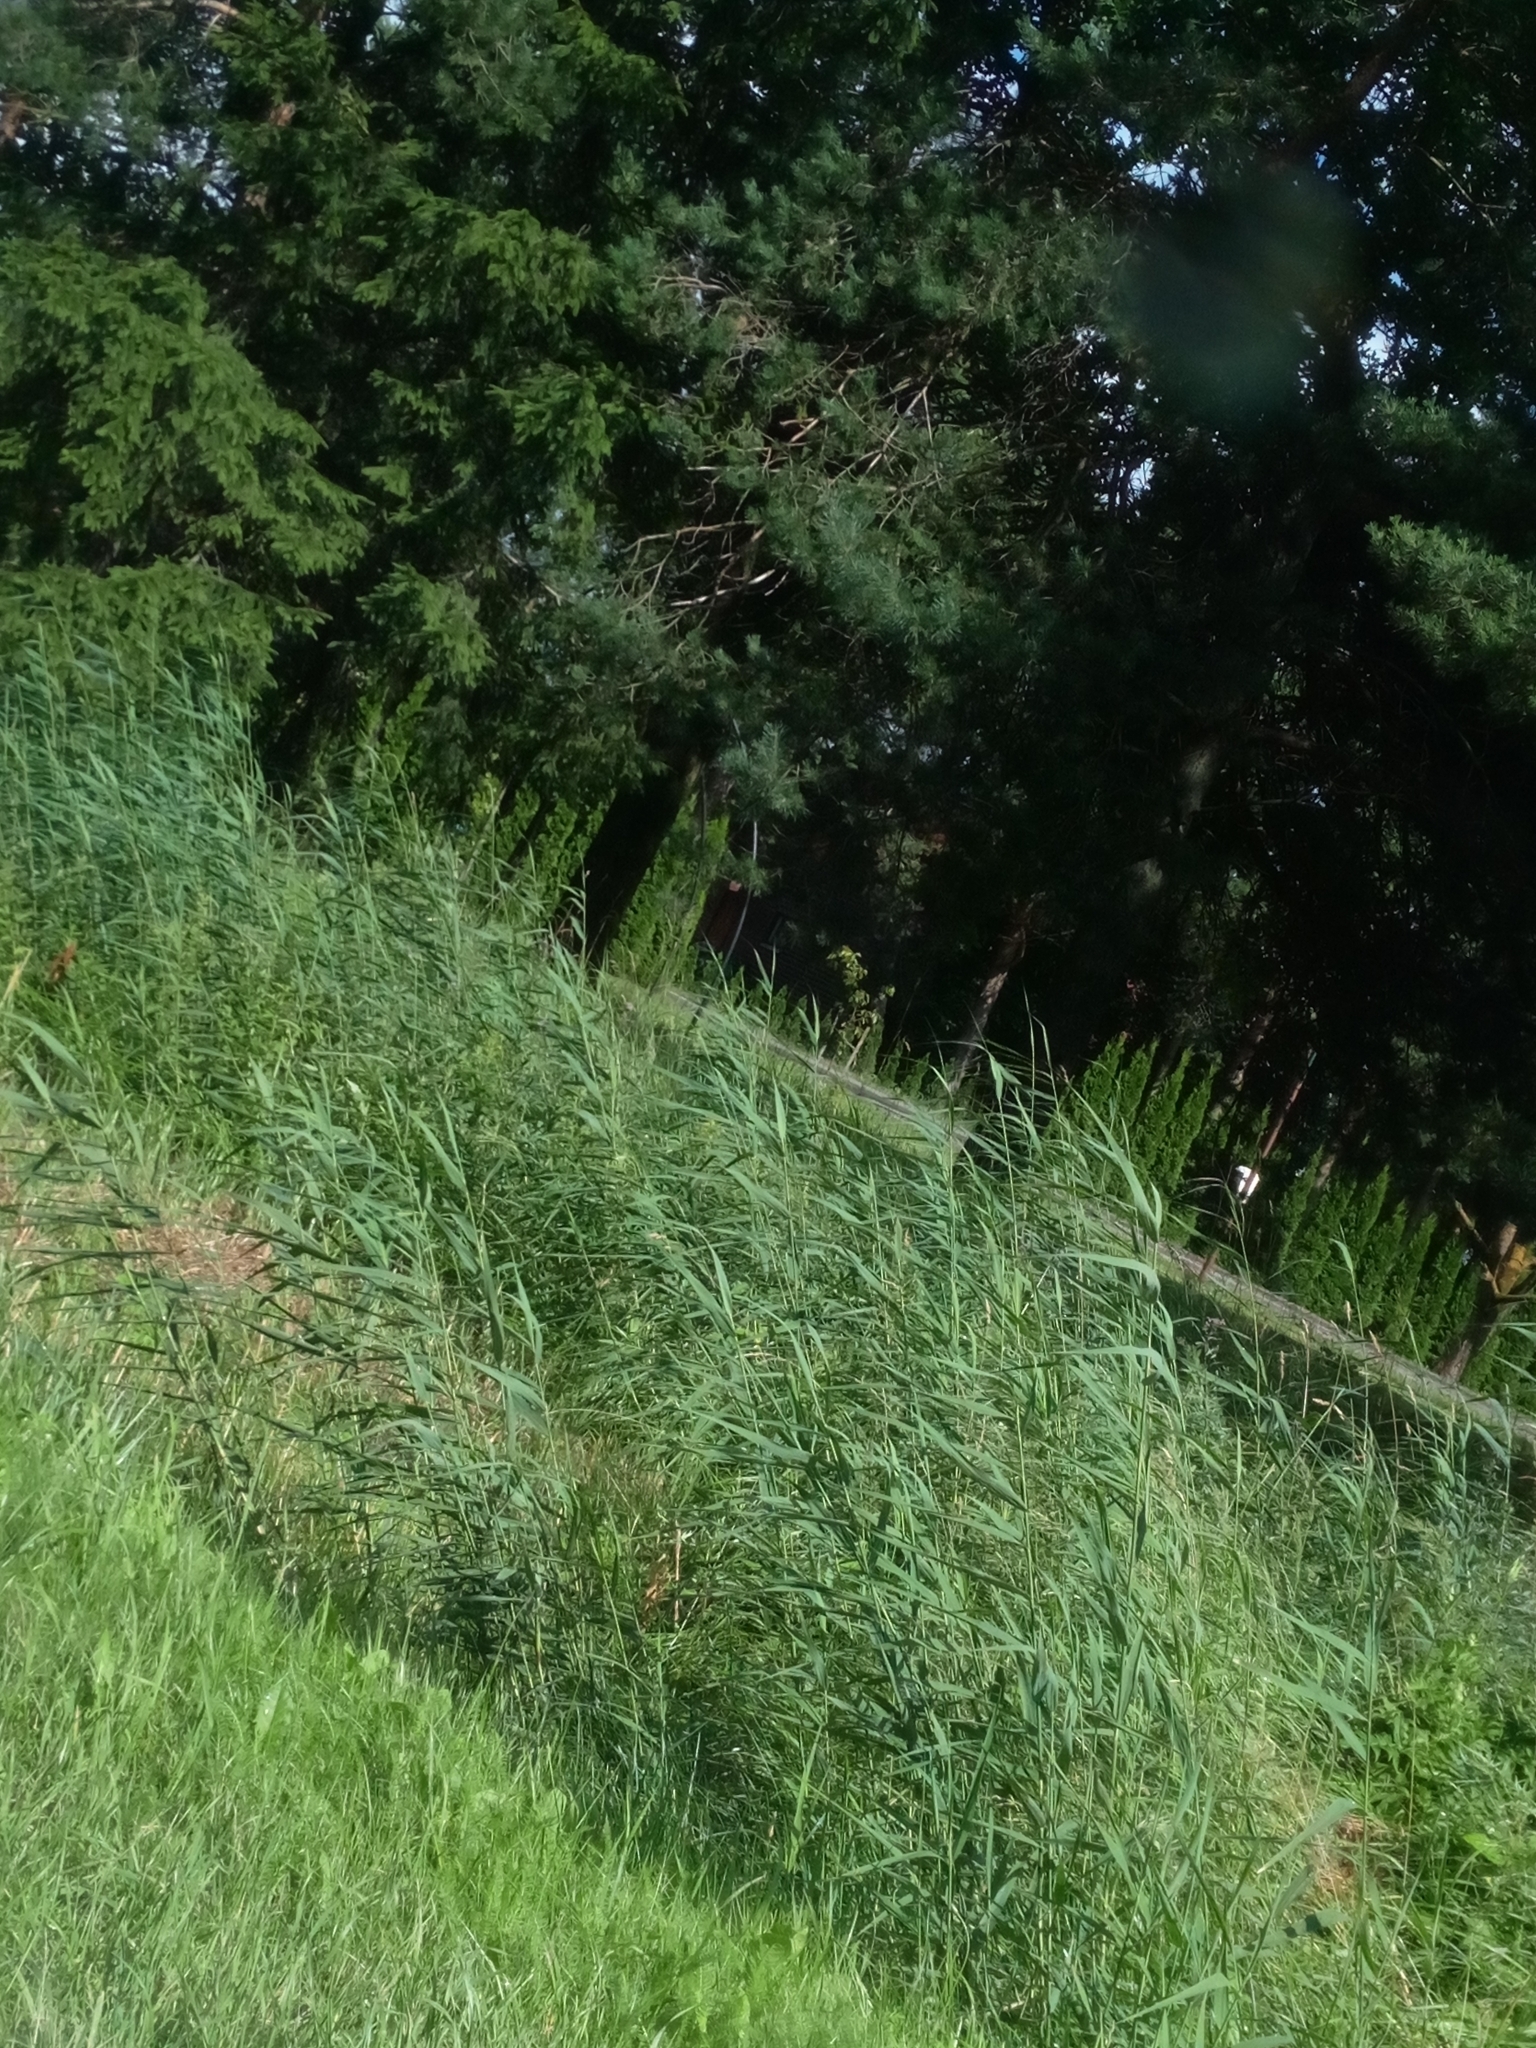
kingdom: Plantae
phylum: Tracheophyta
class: Liliopsida
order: Poales
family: Poaceae
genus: Phragmites
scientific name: Phragmites australis
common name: Common reed
